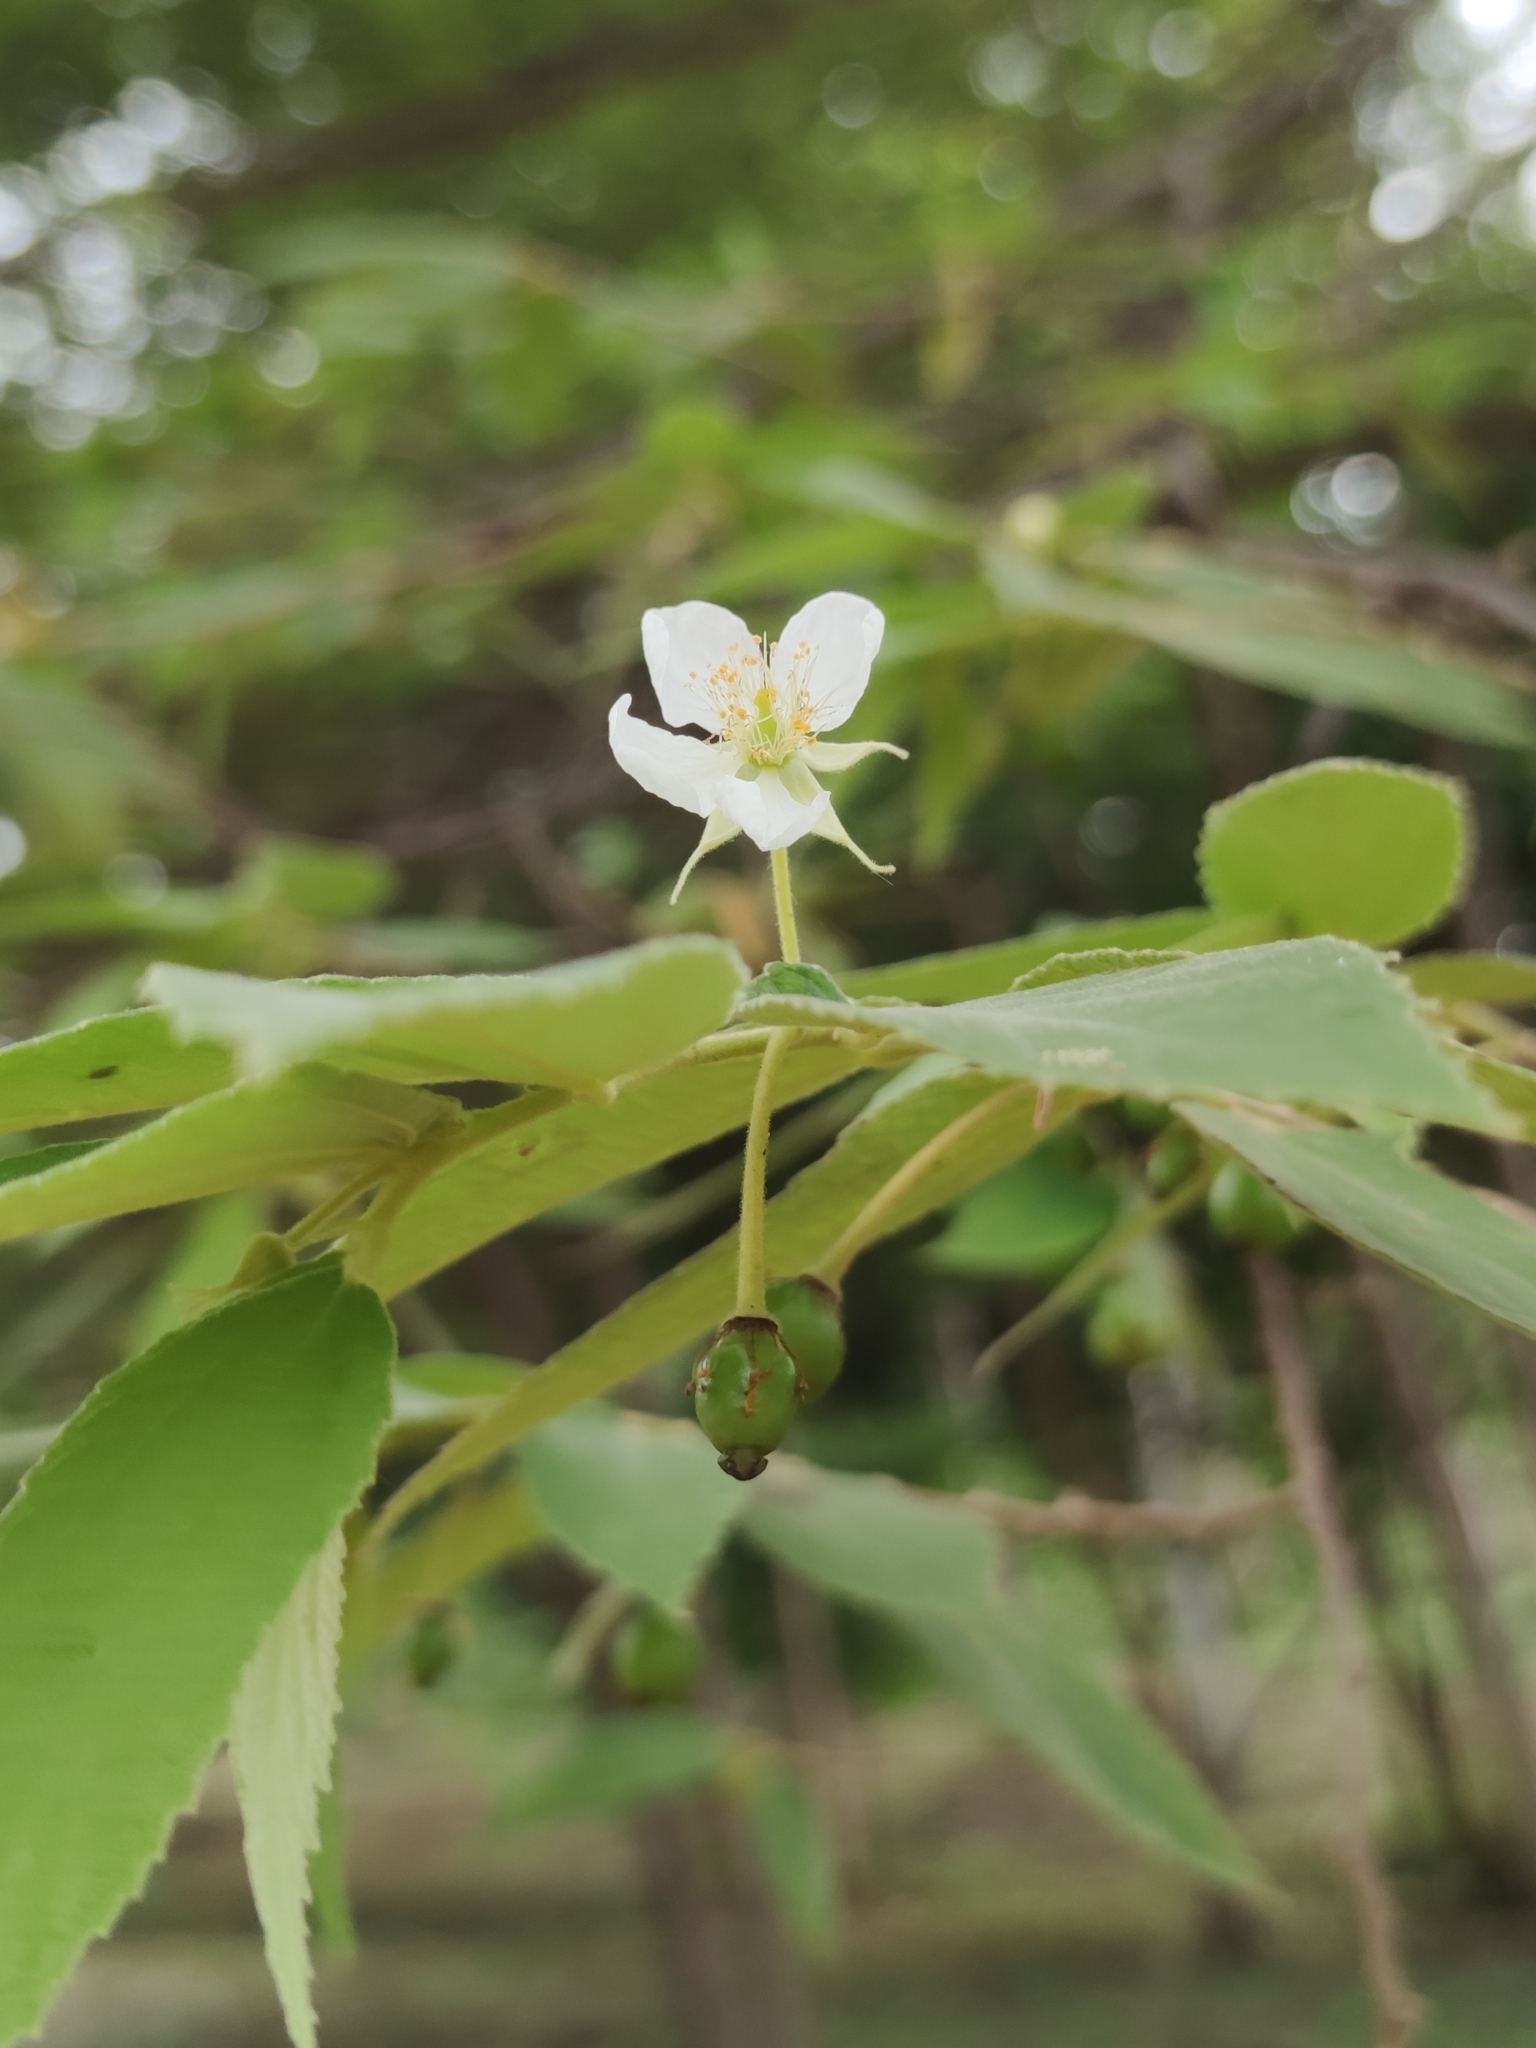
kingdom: Plantae
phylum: Tracheophyta
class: Magnoliopsida
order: Malvales
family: Muntingiaceae
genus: Muntingia
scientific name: Muntingia calabura
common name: Strawberrytree
